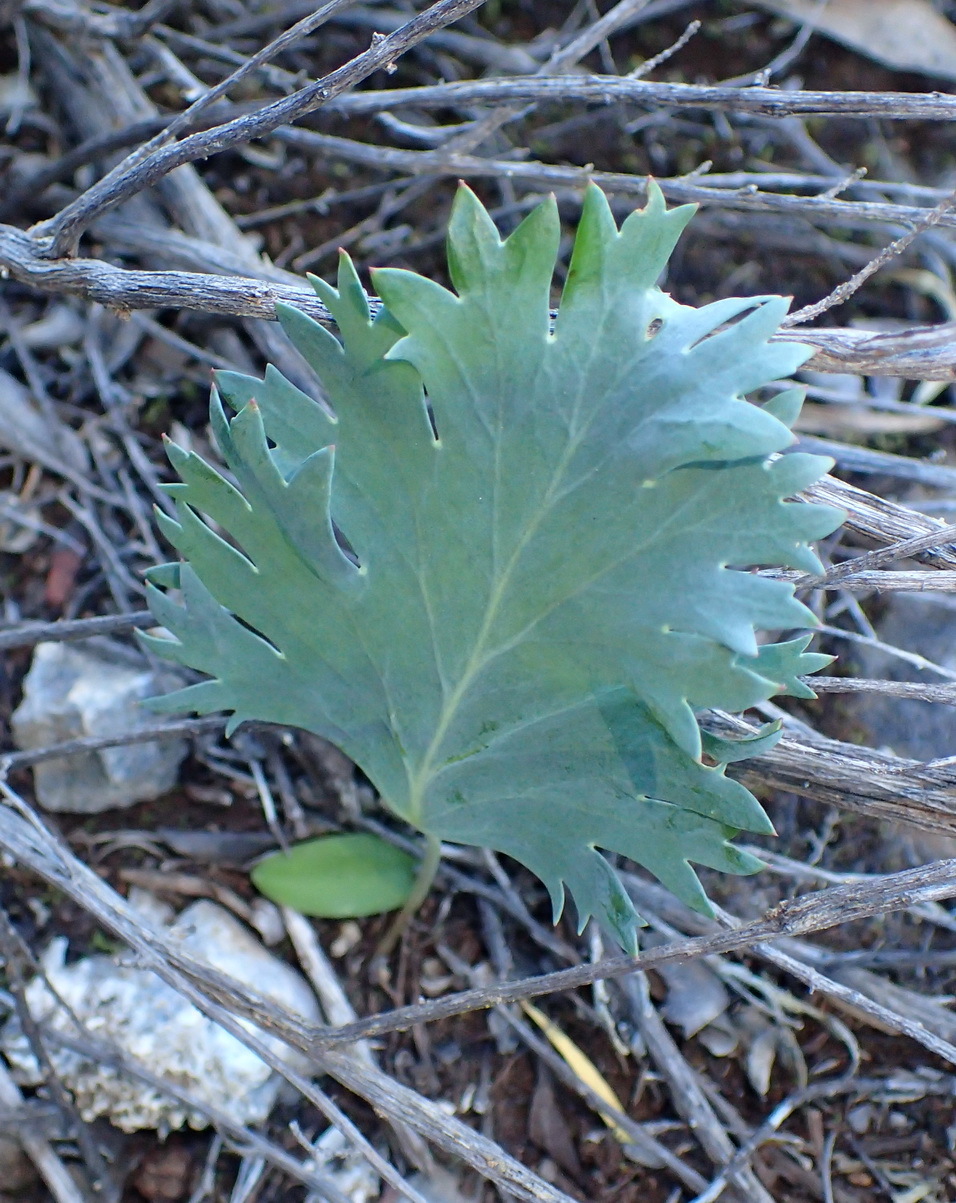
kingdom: Plantae
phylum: Tracheophyta
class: Magnoliopsida
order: Geraniales
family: Geraniaceae
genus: Pelargonium
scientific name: Pelargonium pillansii
